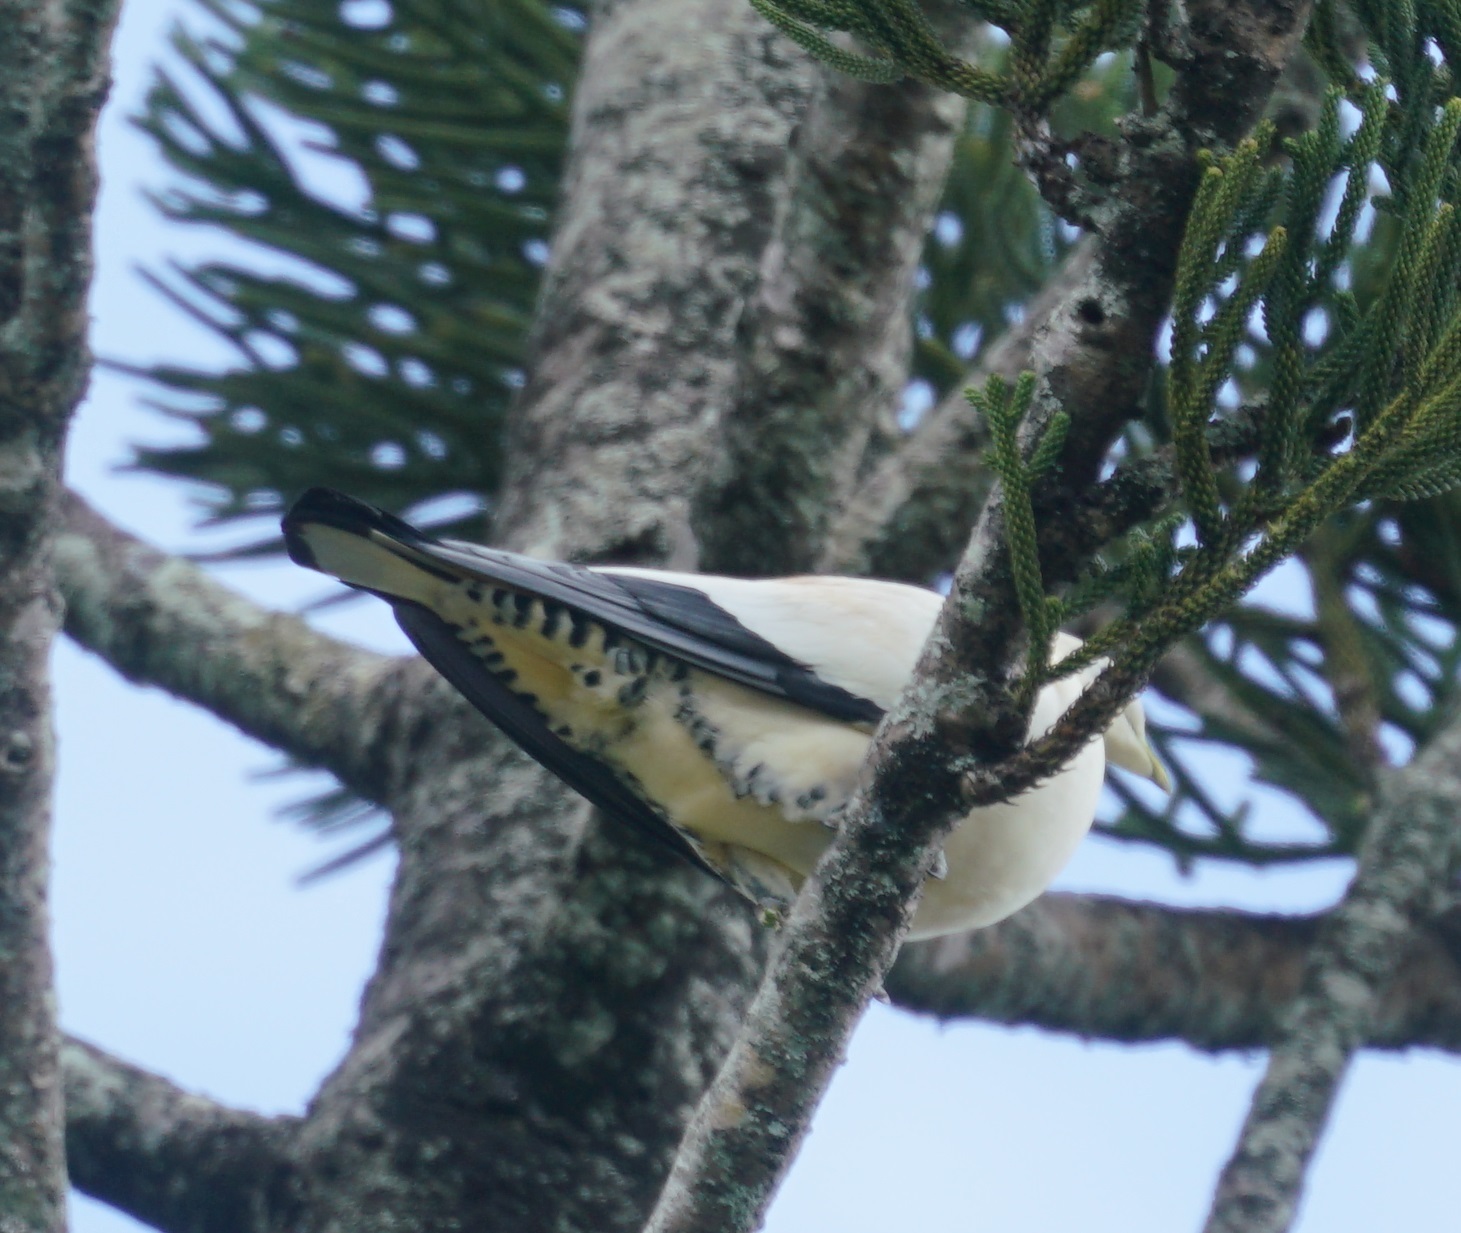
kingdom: Animalia
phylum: Chordata
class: Aves
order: Columbiformes
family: Columbidae
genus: Ducula
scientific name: Ducula spilorrhoa
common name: Torresian imperial pigeon
